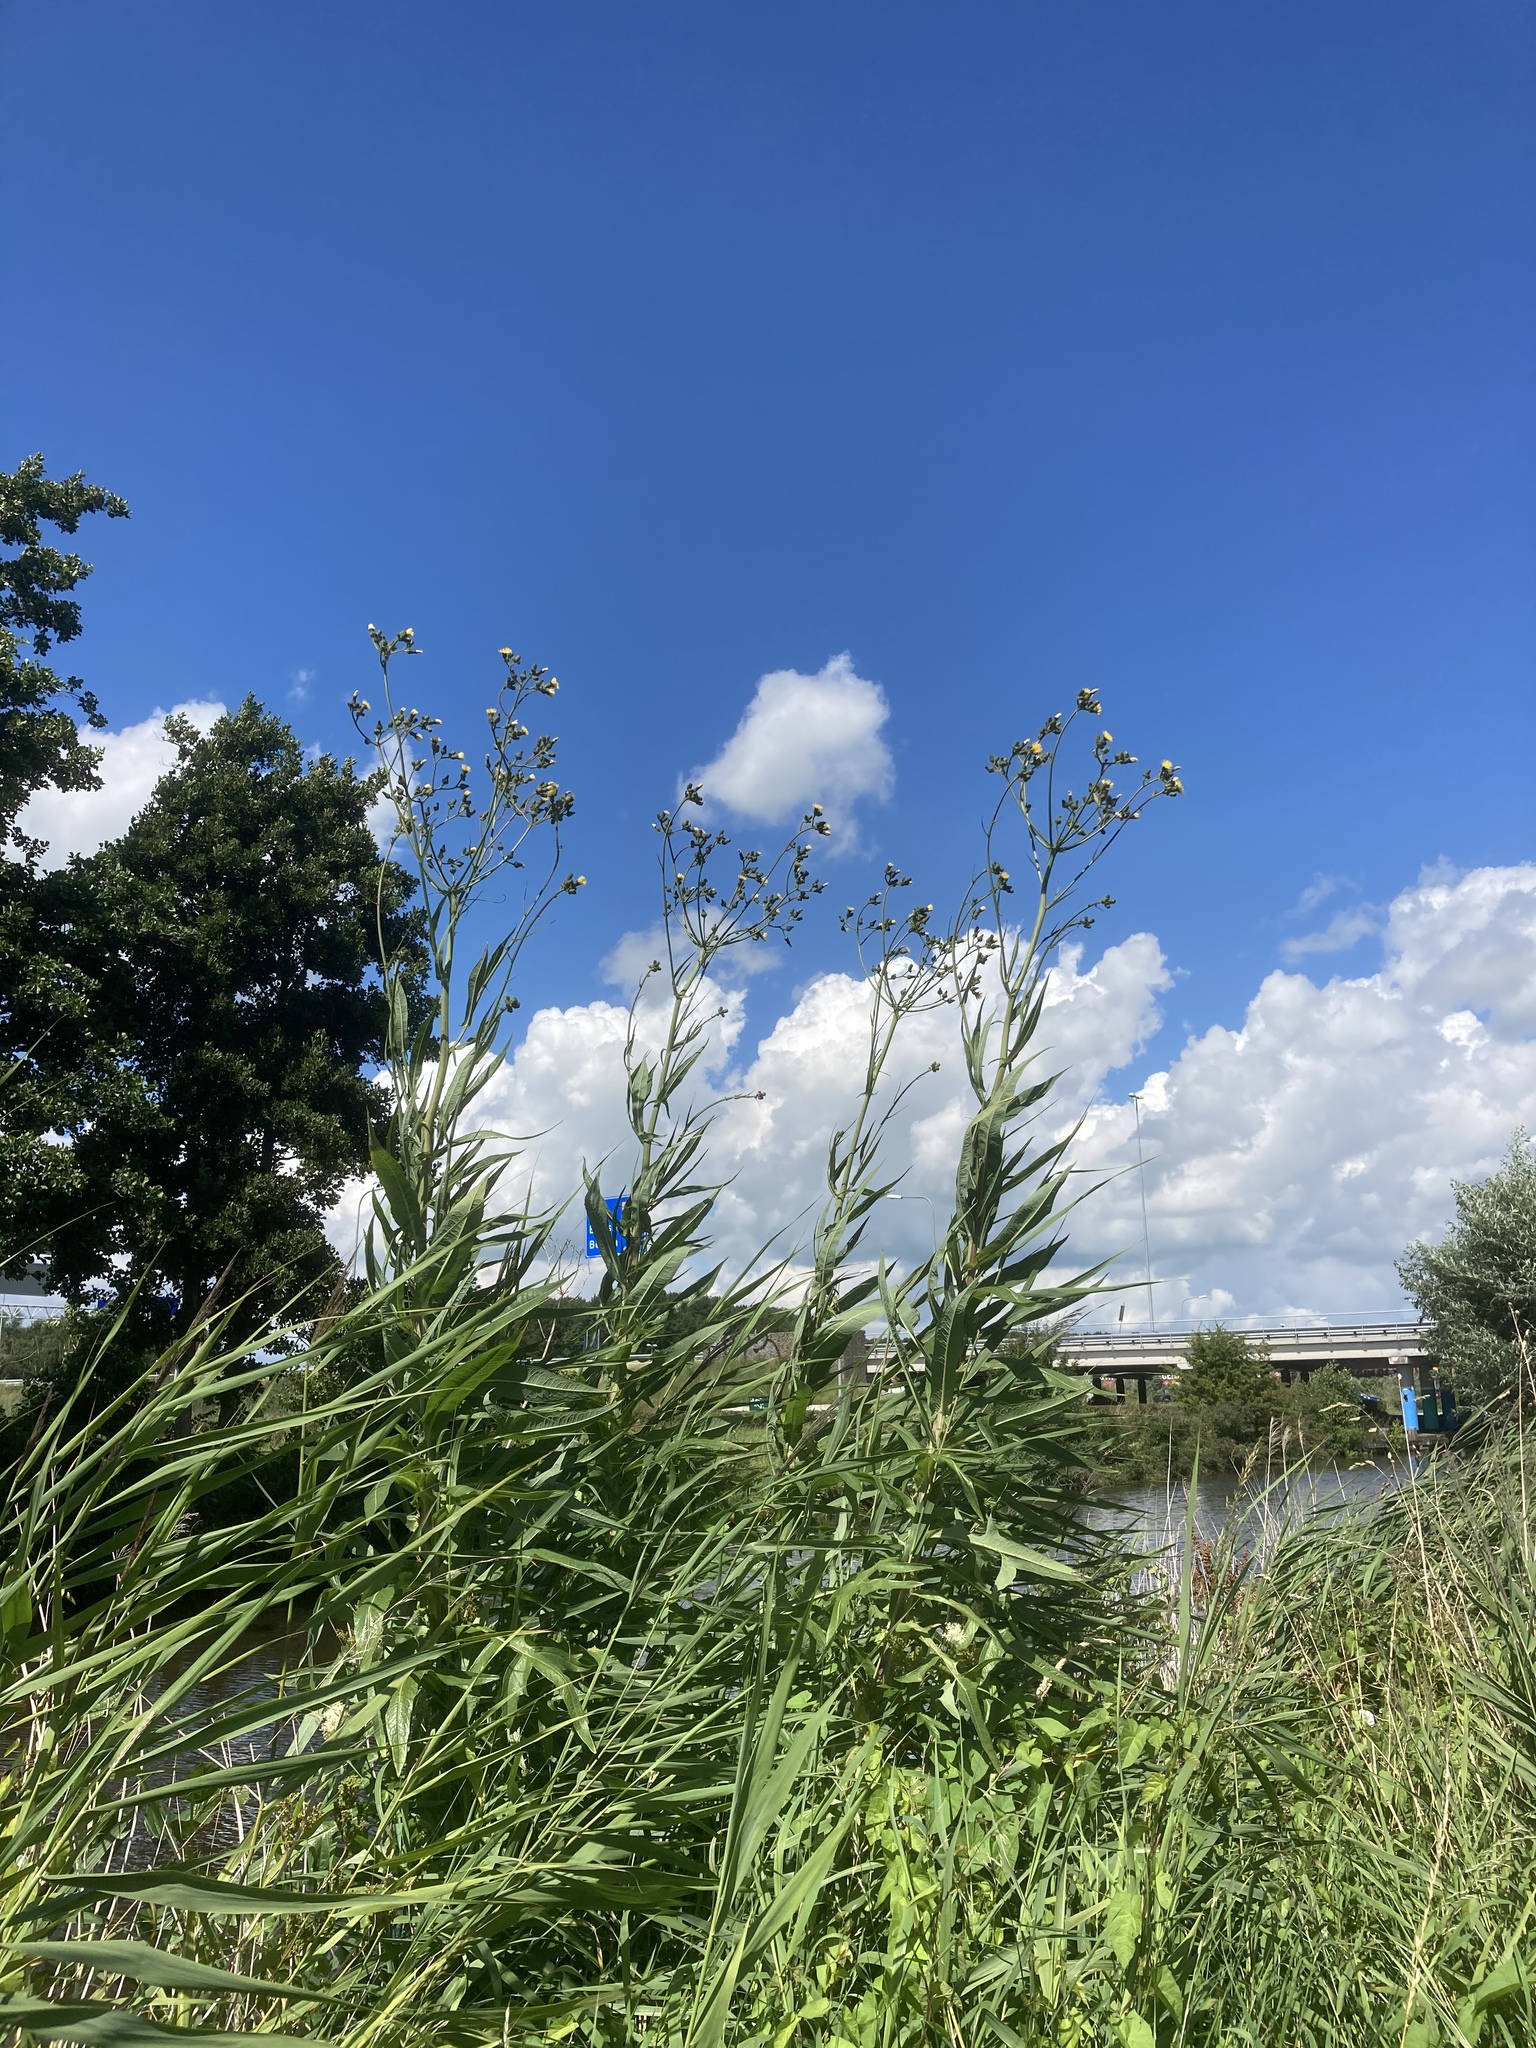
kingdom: Plantae
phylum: Tracheophyta
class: Magnoliopsida
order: Asterales
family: Asteraceae
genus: Sonchus
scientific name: Sonchus palustris
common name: Marsh sow-thistle
